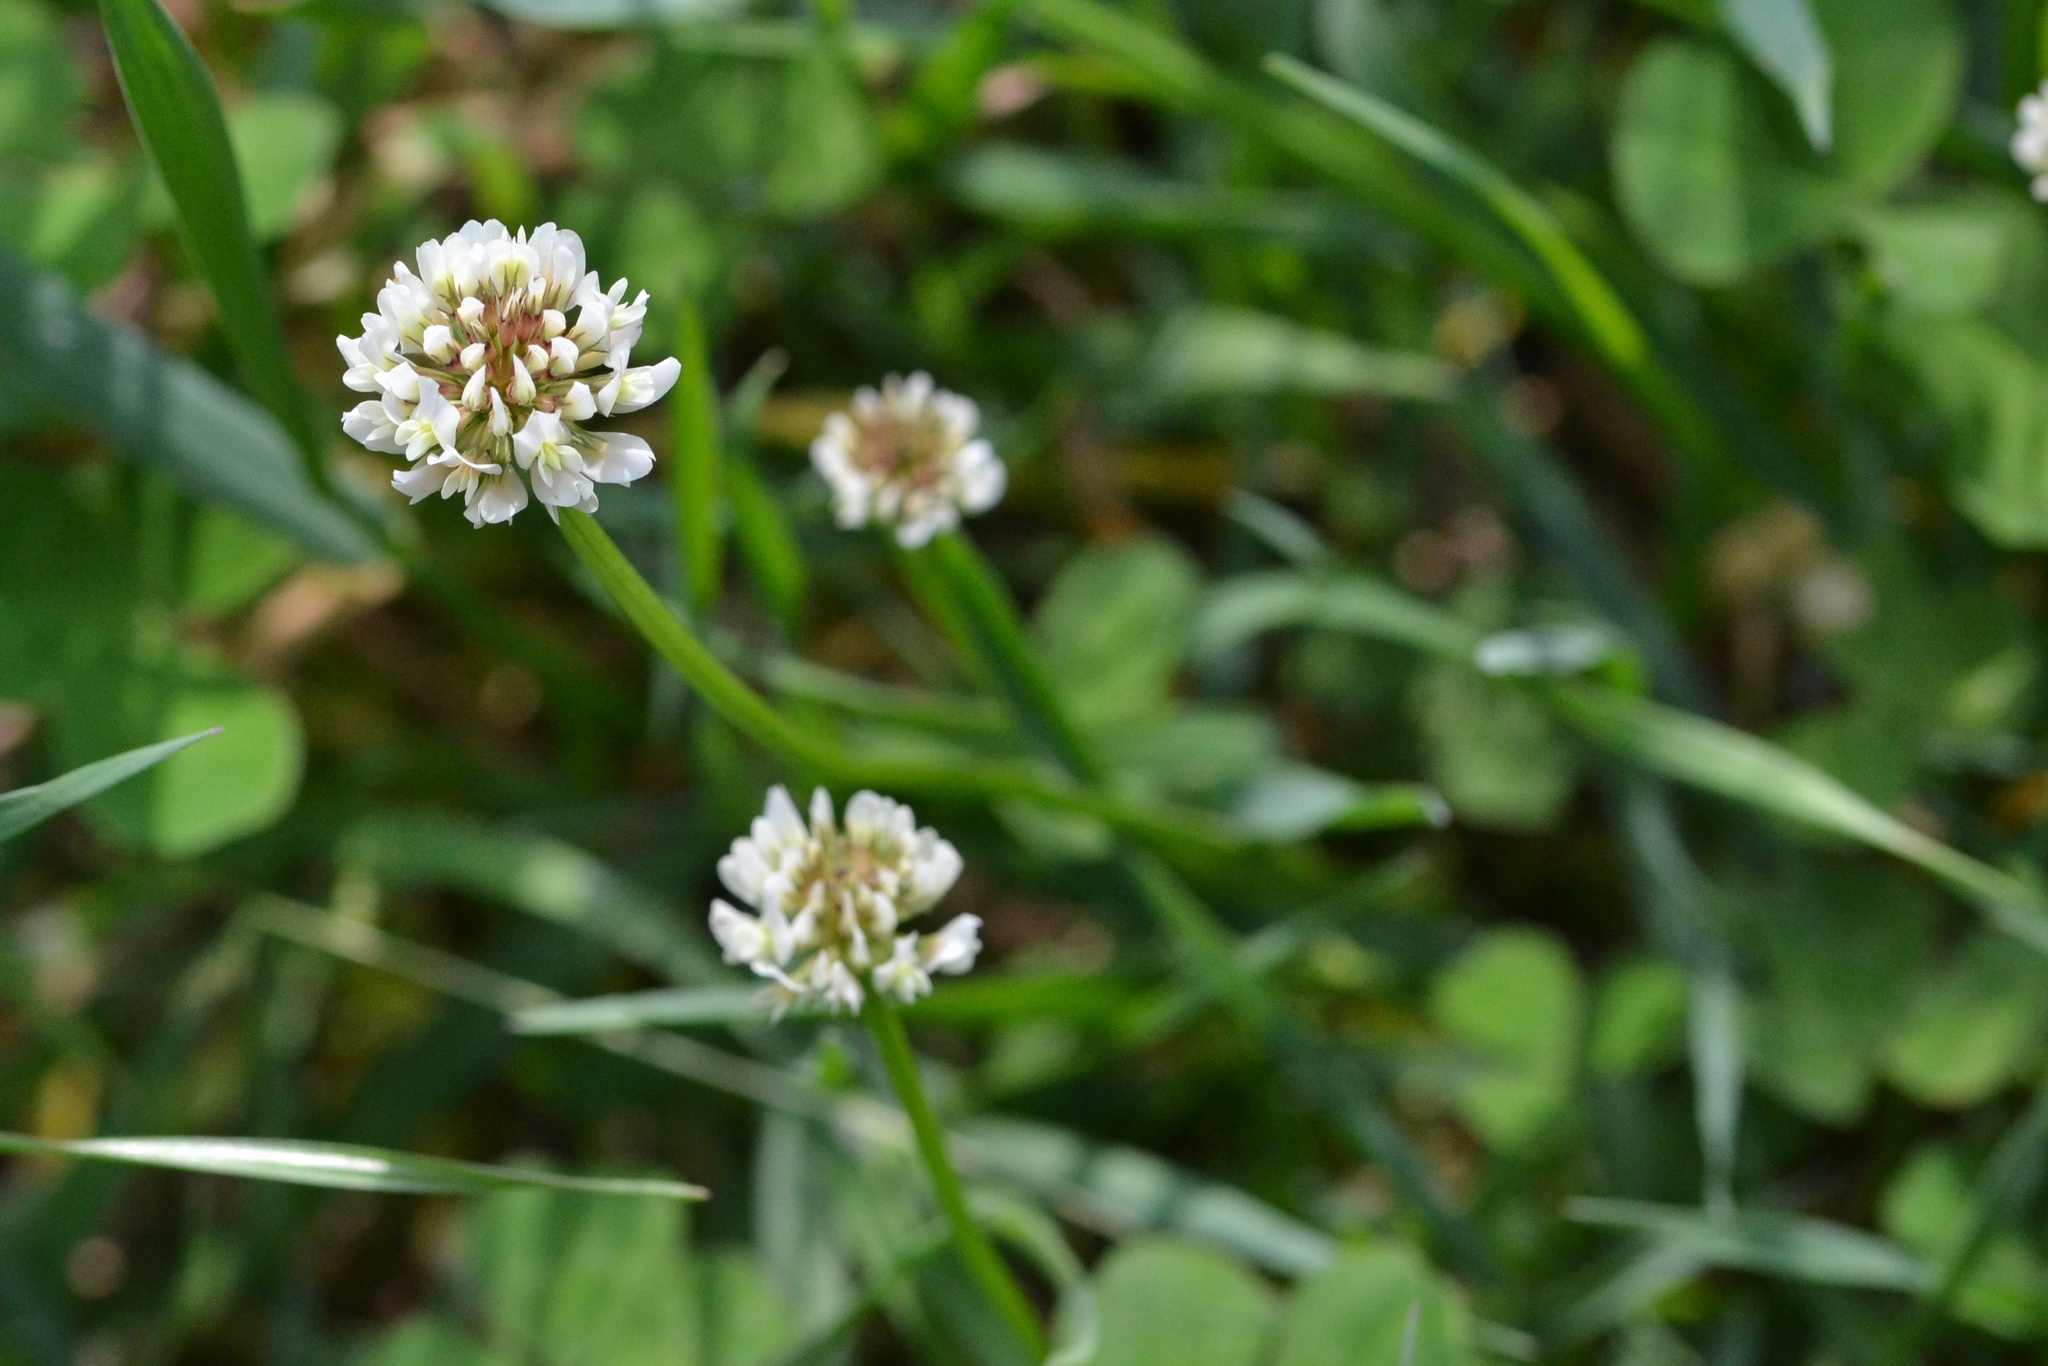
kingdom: Plantae
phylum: Tracheophyta
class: Magnoliopsida
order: Fabales
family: Fabaceae
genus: Trifolium
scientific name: Trifolium repens
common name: White clover
